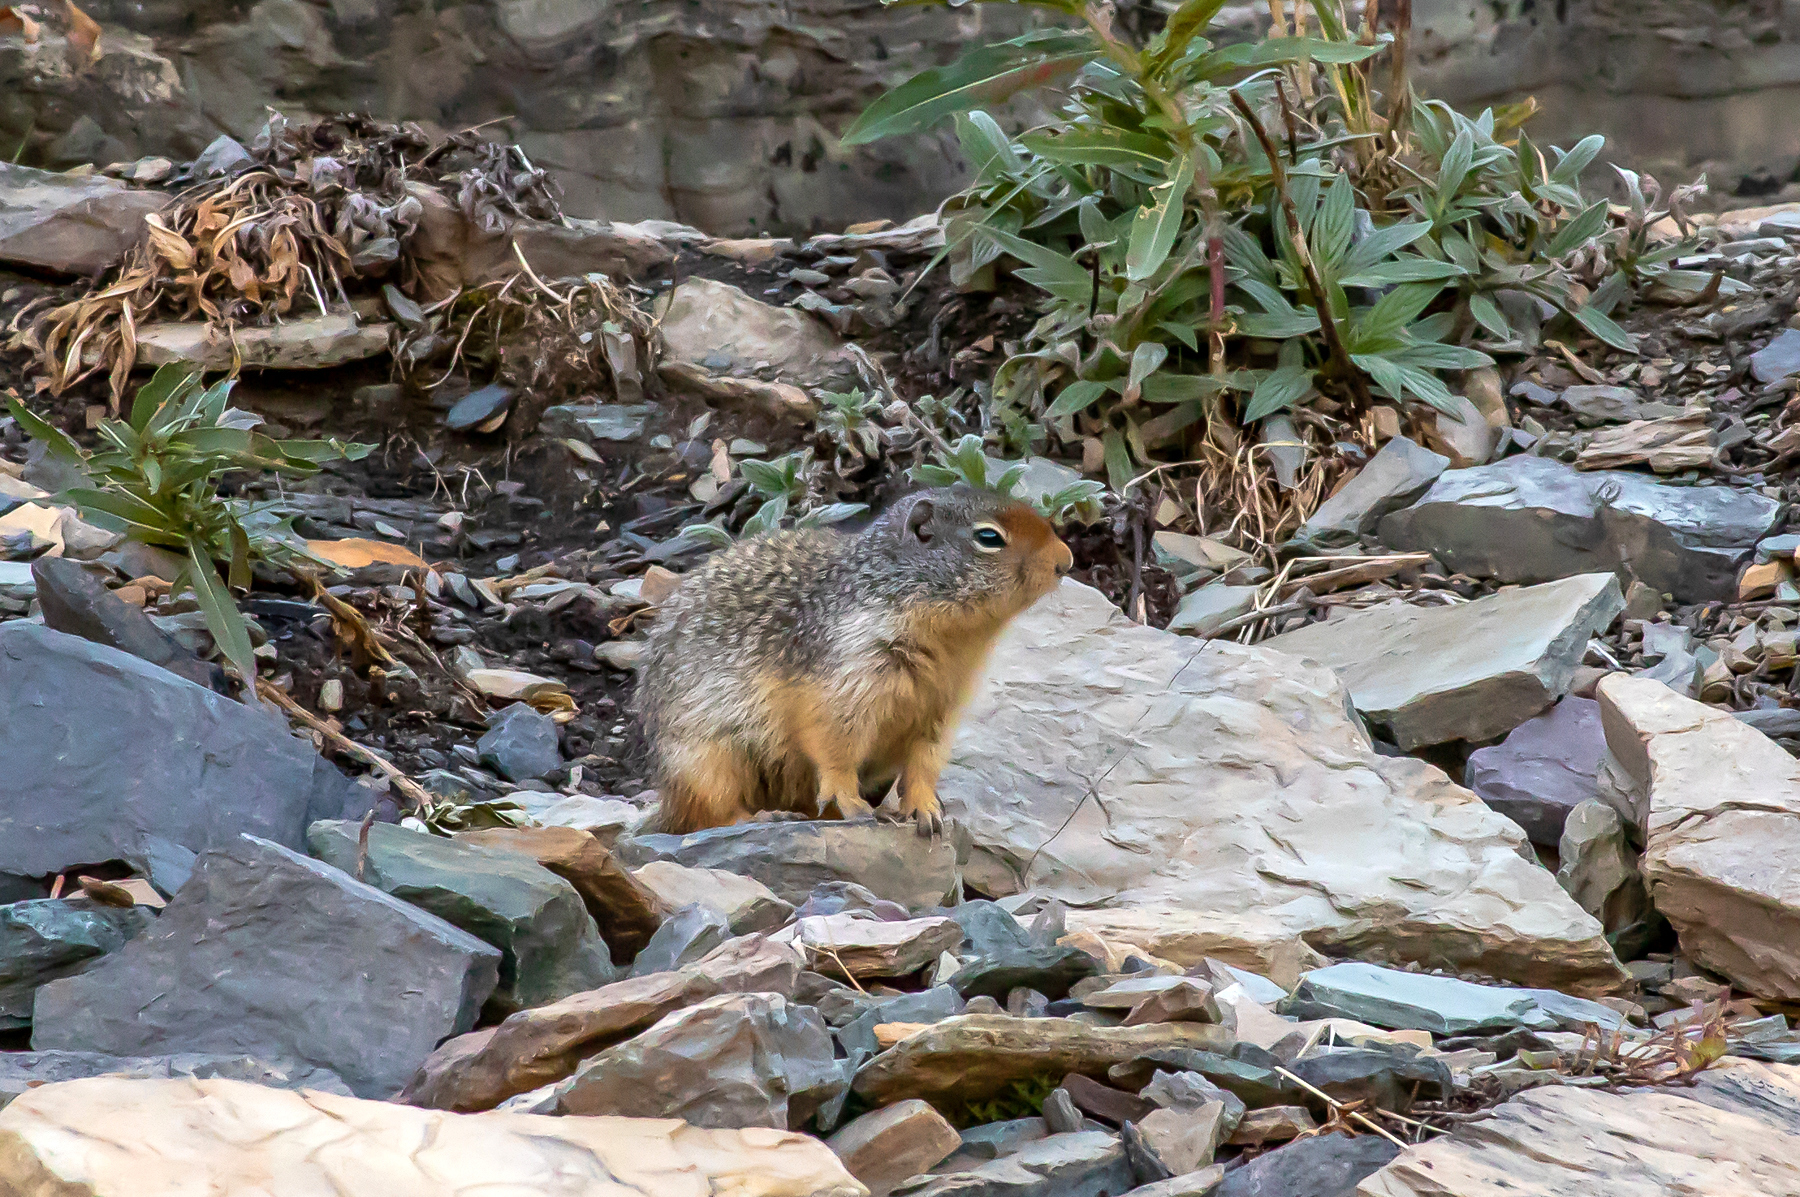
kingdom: Animalia
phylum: Chordata
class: Mammalia
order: Rodentia
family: Sciuridae
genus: Urocitellus
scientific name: Urocitellus columbianus
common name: Columbian ground squirrel
